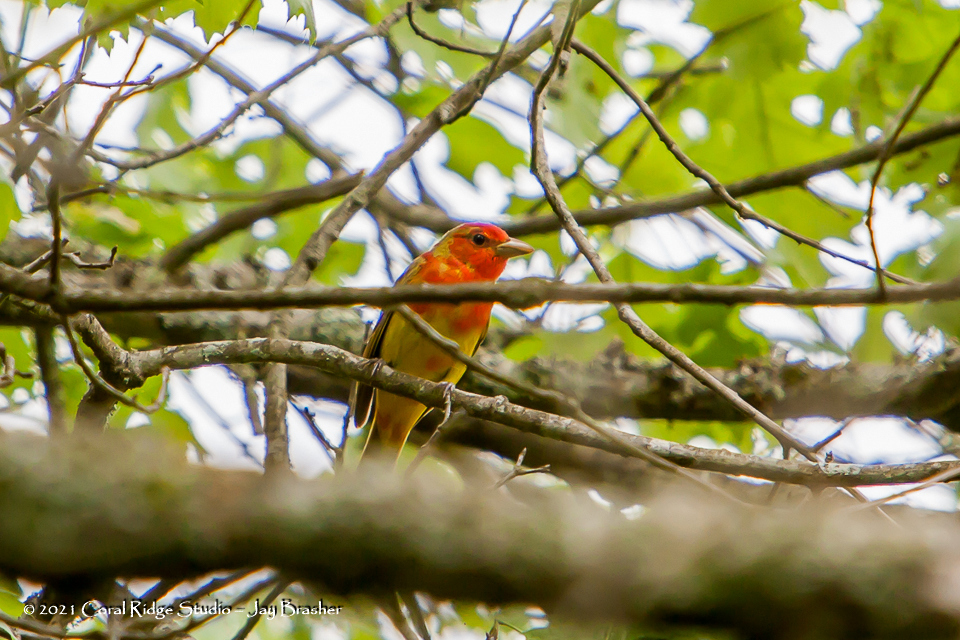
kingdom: Animalia
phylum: Chordata
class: Aves
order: Passeriformes
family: Cardinalidae
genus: Piranga
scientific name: Piranga rubra
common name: Summer tanager
